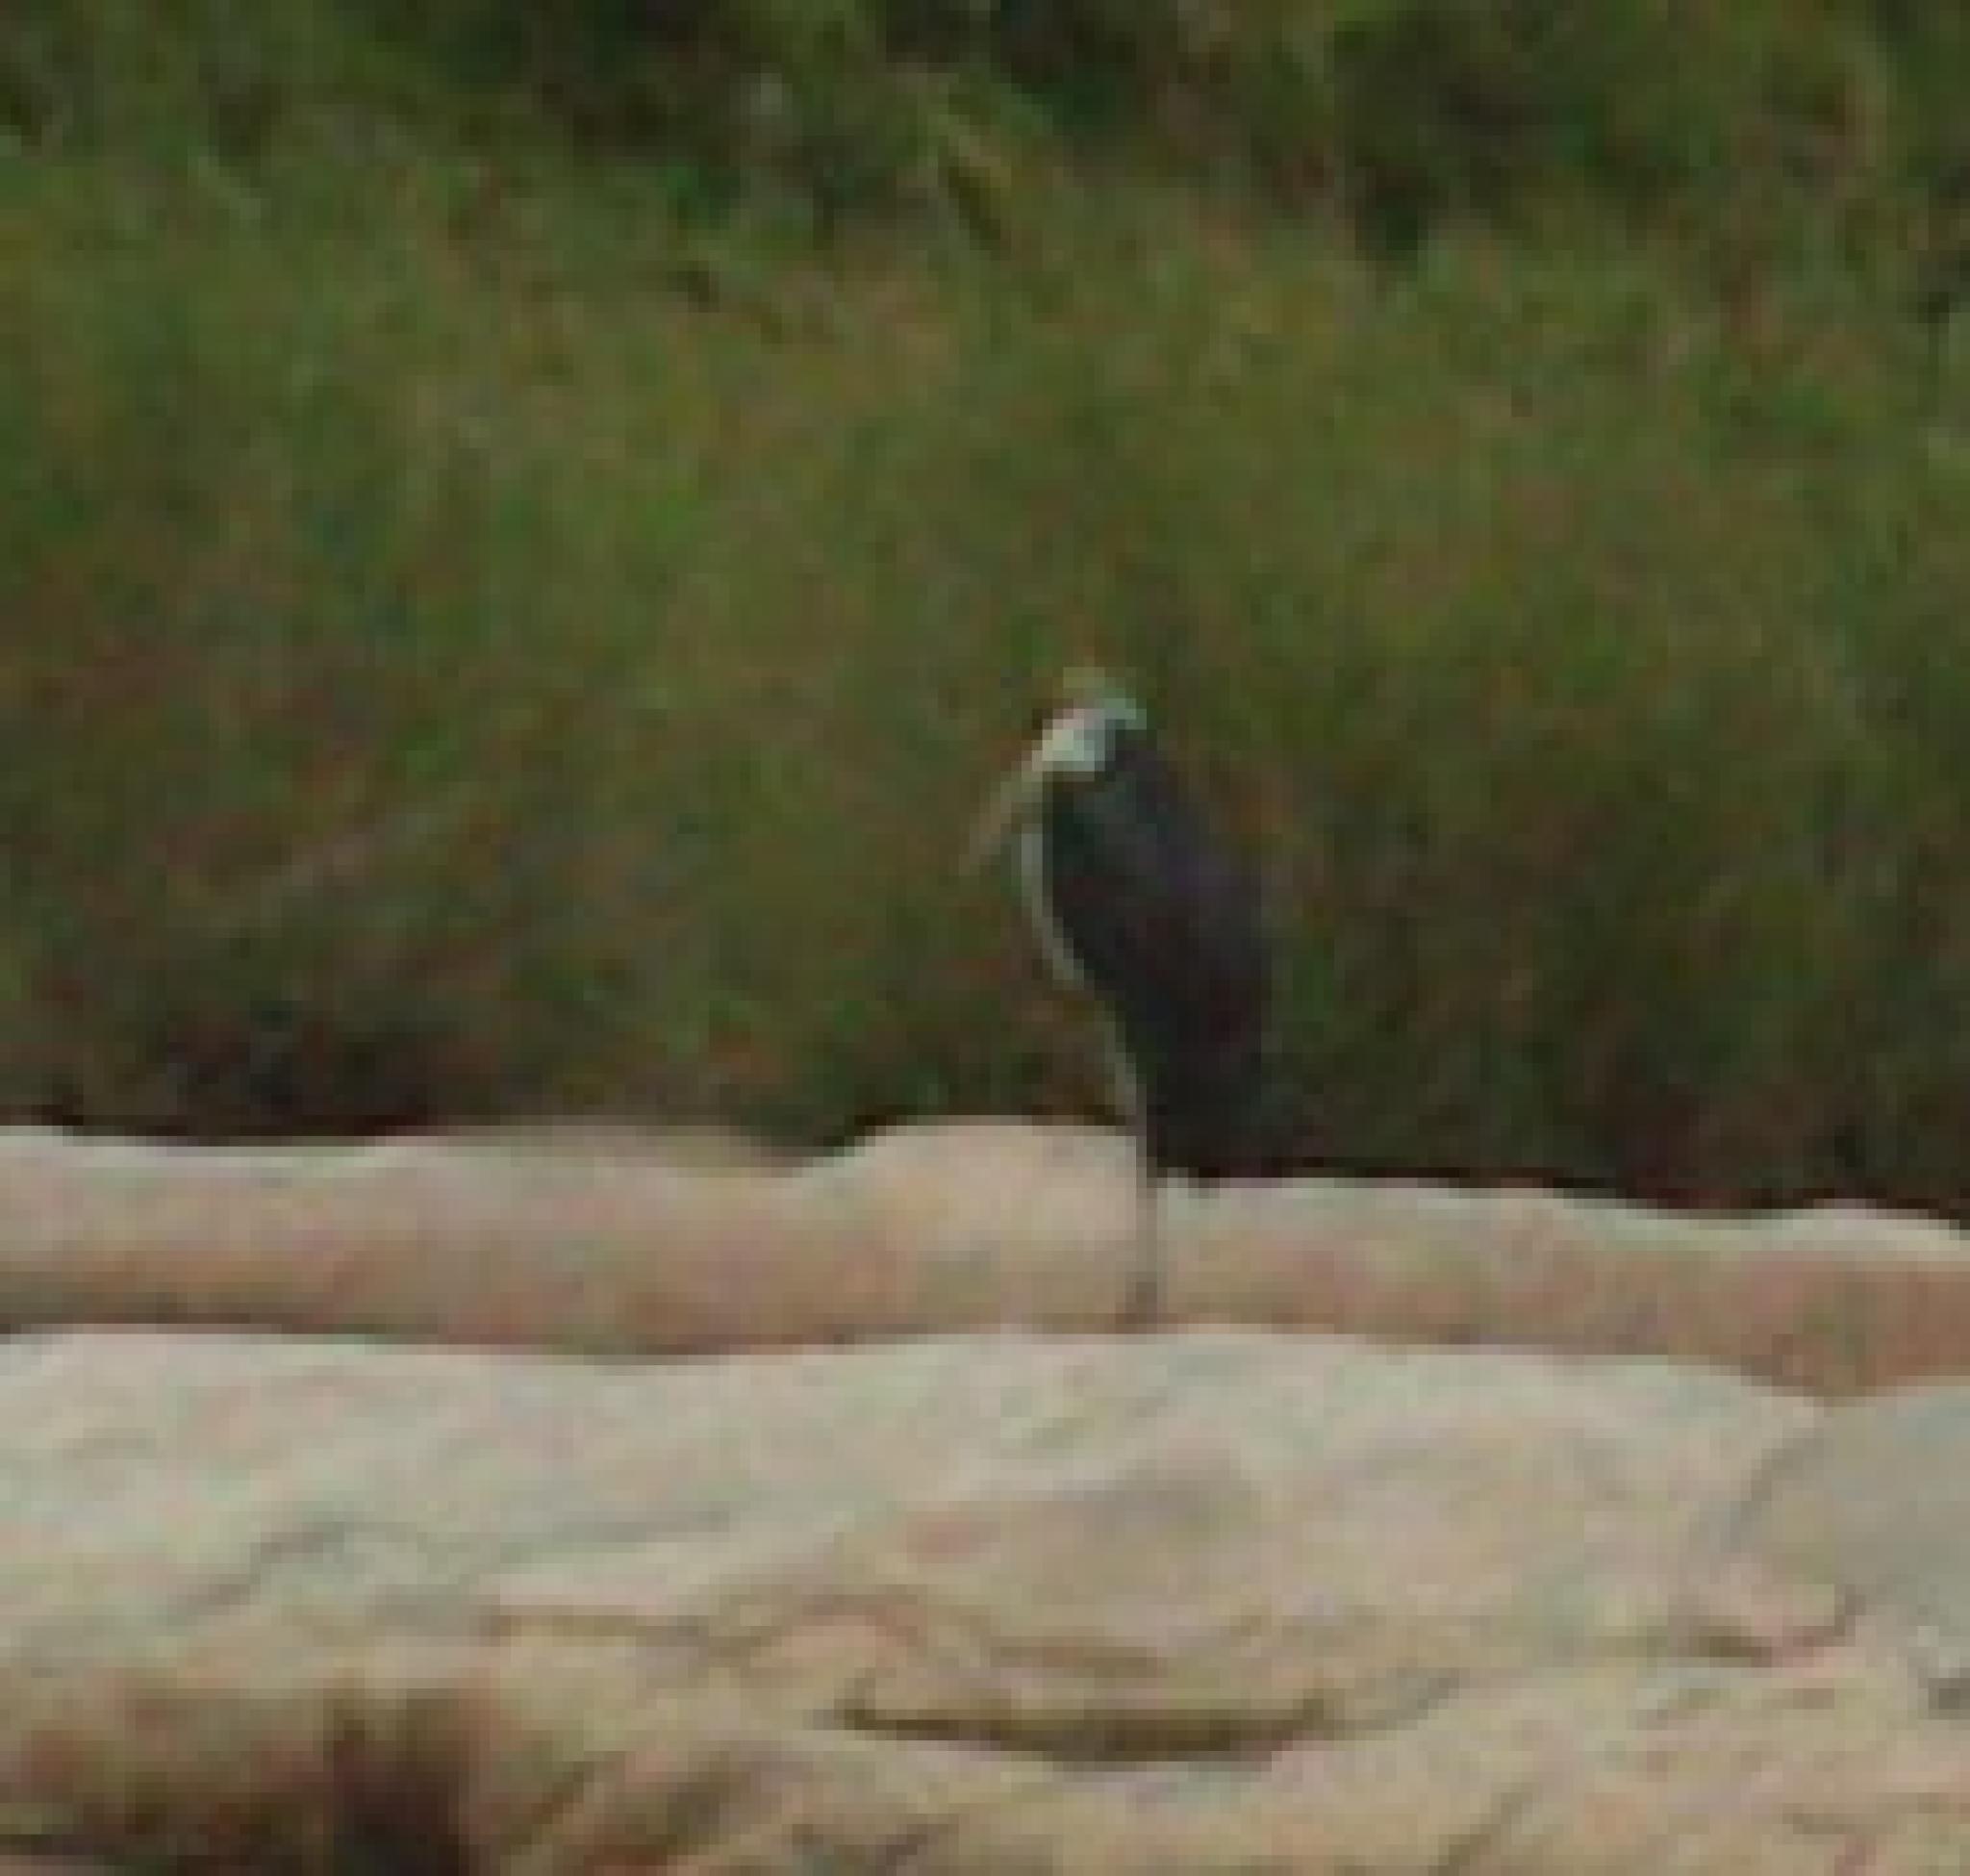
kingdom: Animalia
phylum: Chordata
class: Aves
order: Ciconiiformes
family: Ciconiidae
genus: Leptoptilos
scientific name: Leptoptilos crumenifer
